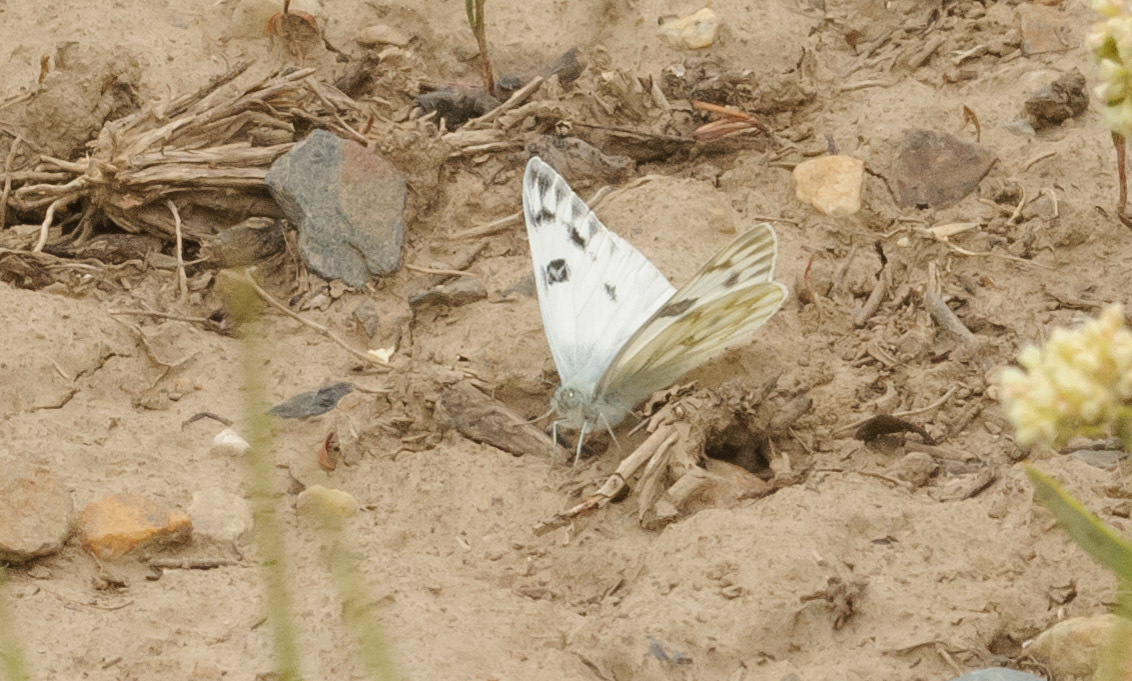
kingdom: Animalia
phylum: Arthropoda
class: Insecta
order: Lepidoptera
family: Pieridae
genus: Pontia
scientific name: Pontia protodice
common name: Checkered white
